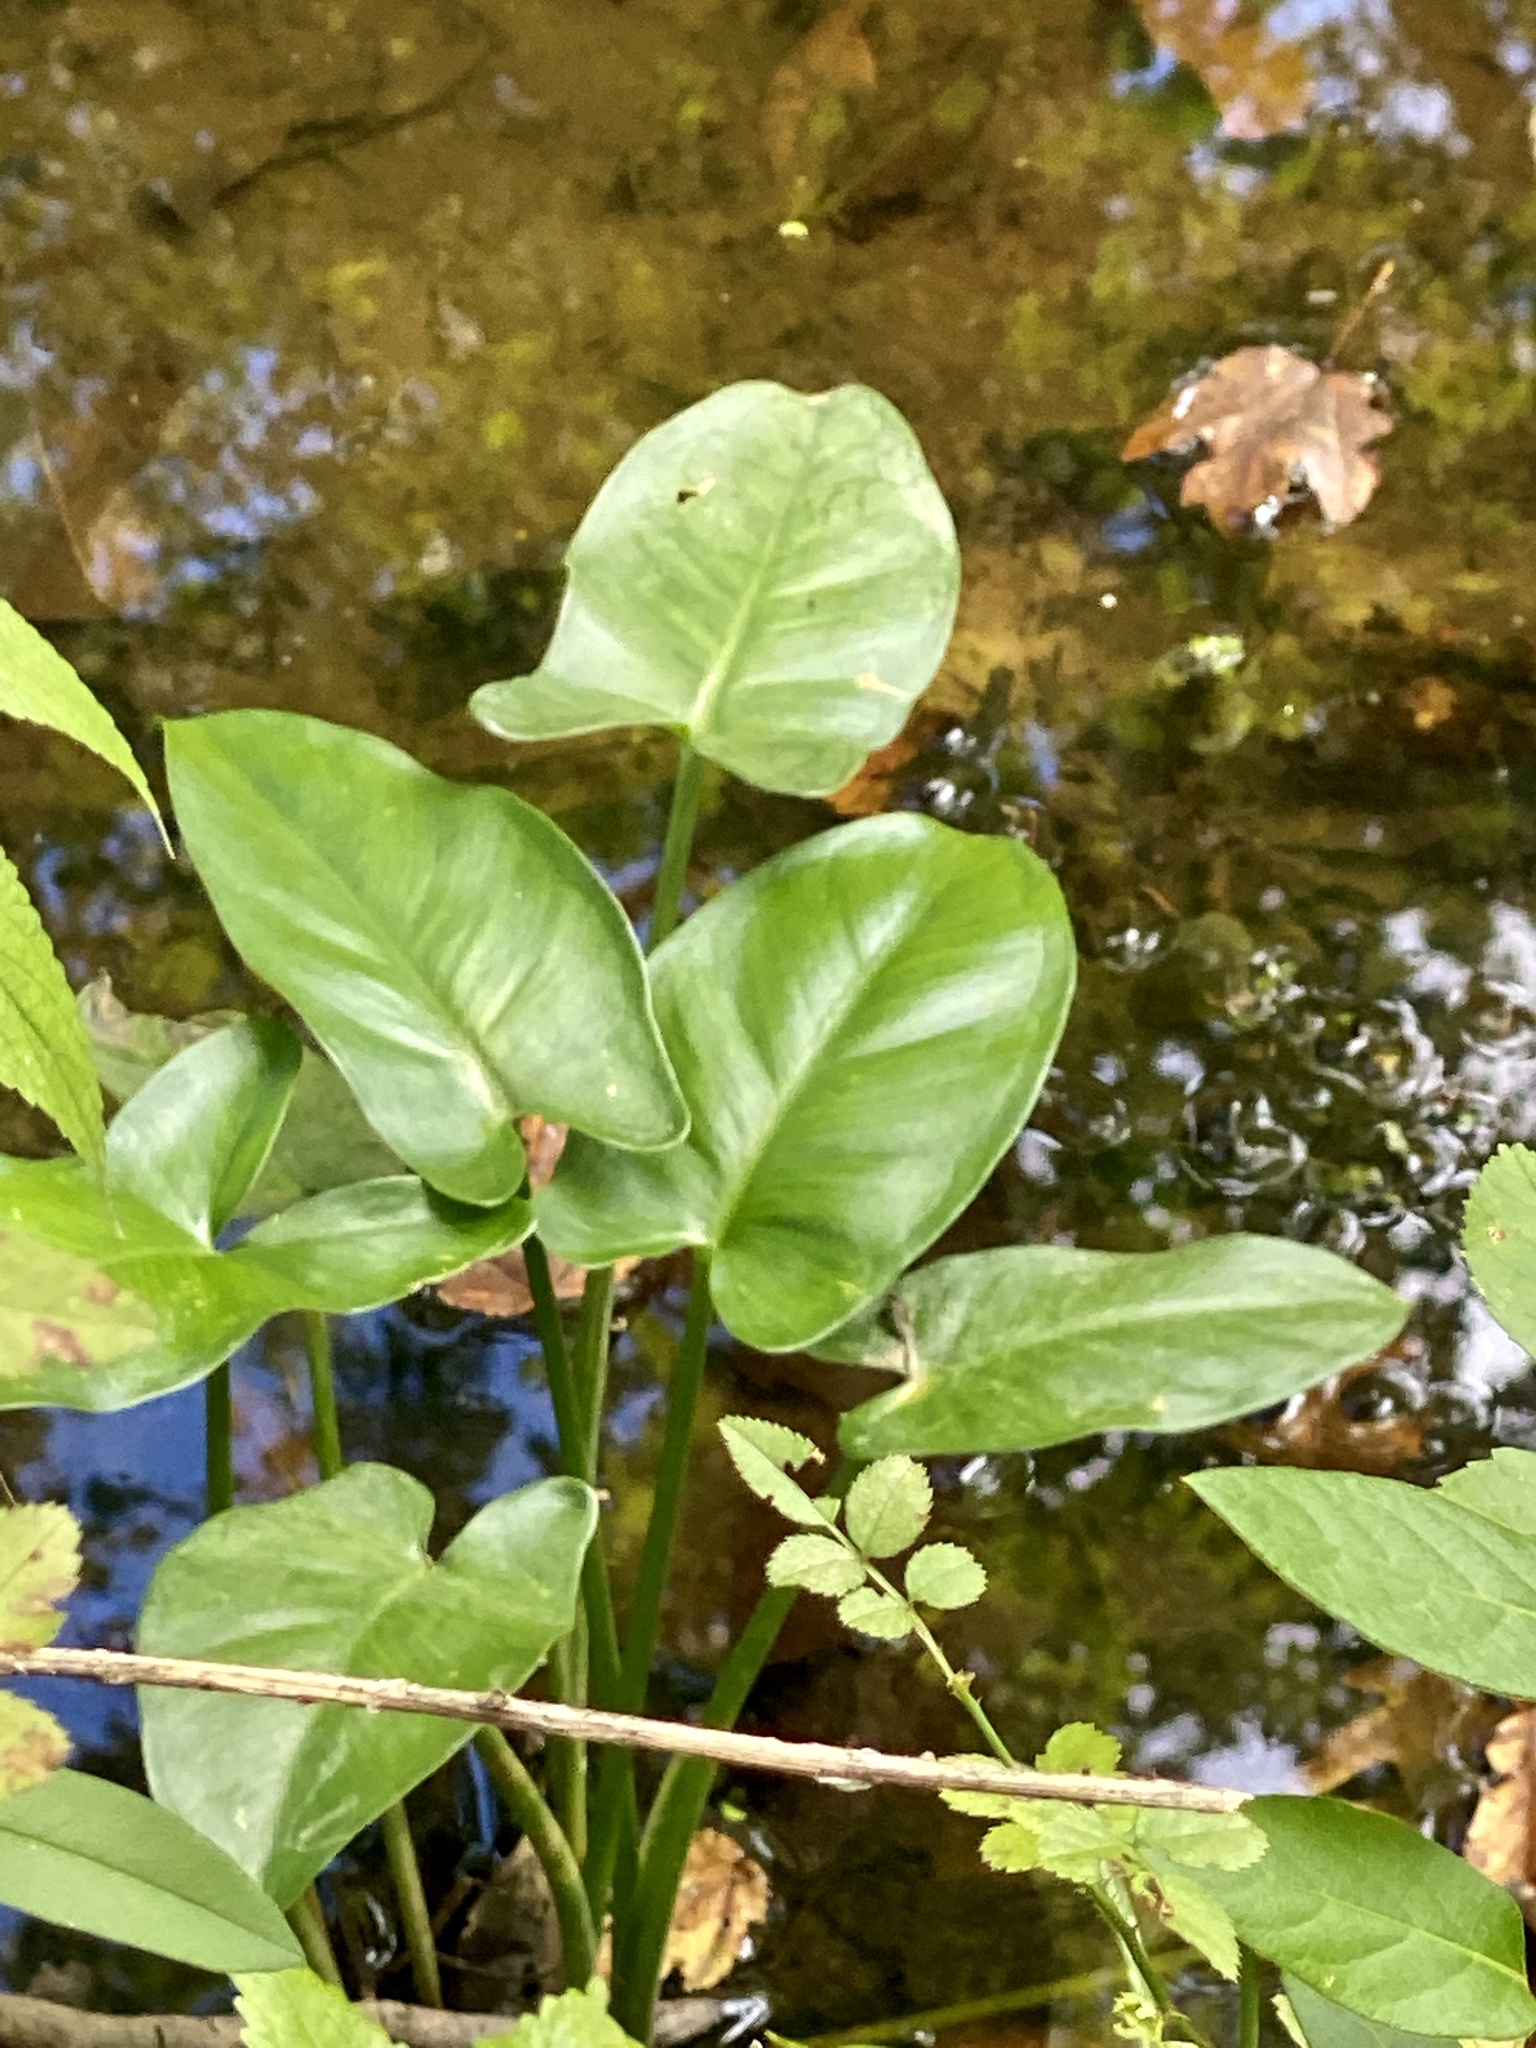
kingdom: Plantae
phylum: Tracheophyta
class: Liliopsida
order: Alismatales
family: Araceae
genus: Peltandra
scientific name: Peltandra virginica
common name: Arrow arum
